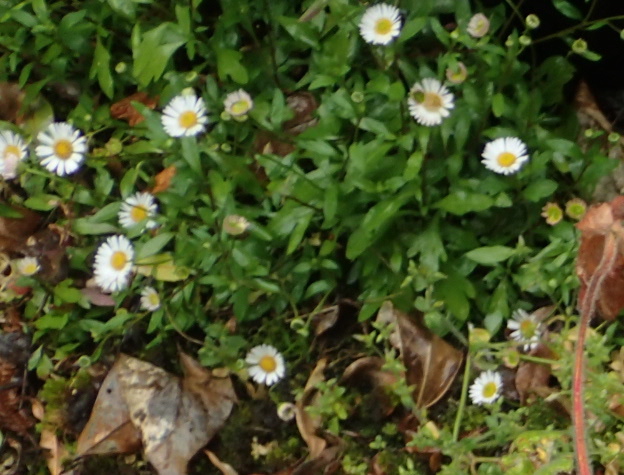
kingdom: Plantae
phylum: Tracheophyta
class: Magnoliopsida
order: Asterales
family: Asteraceae
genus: Erigeron
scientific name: Erigeron karvinskianus
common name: Mexican fleabane
